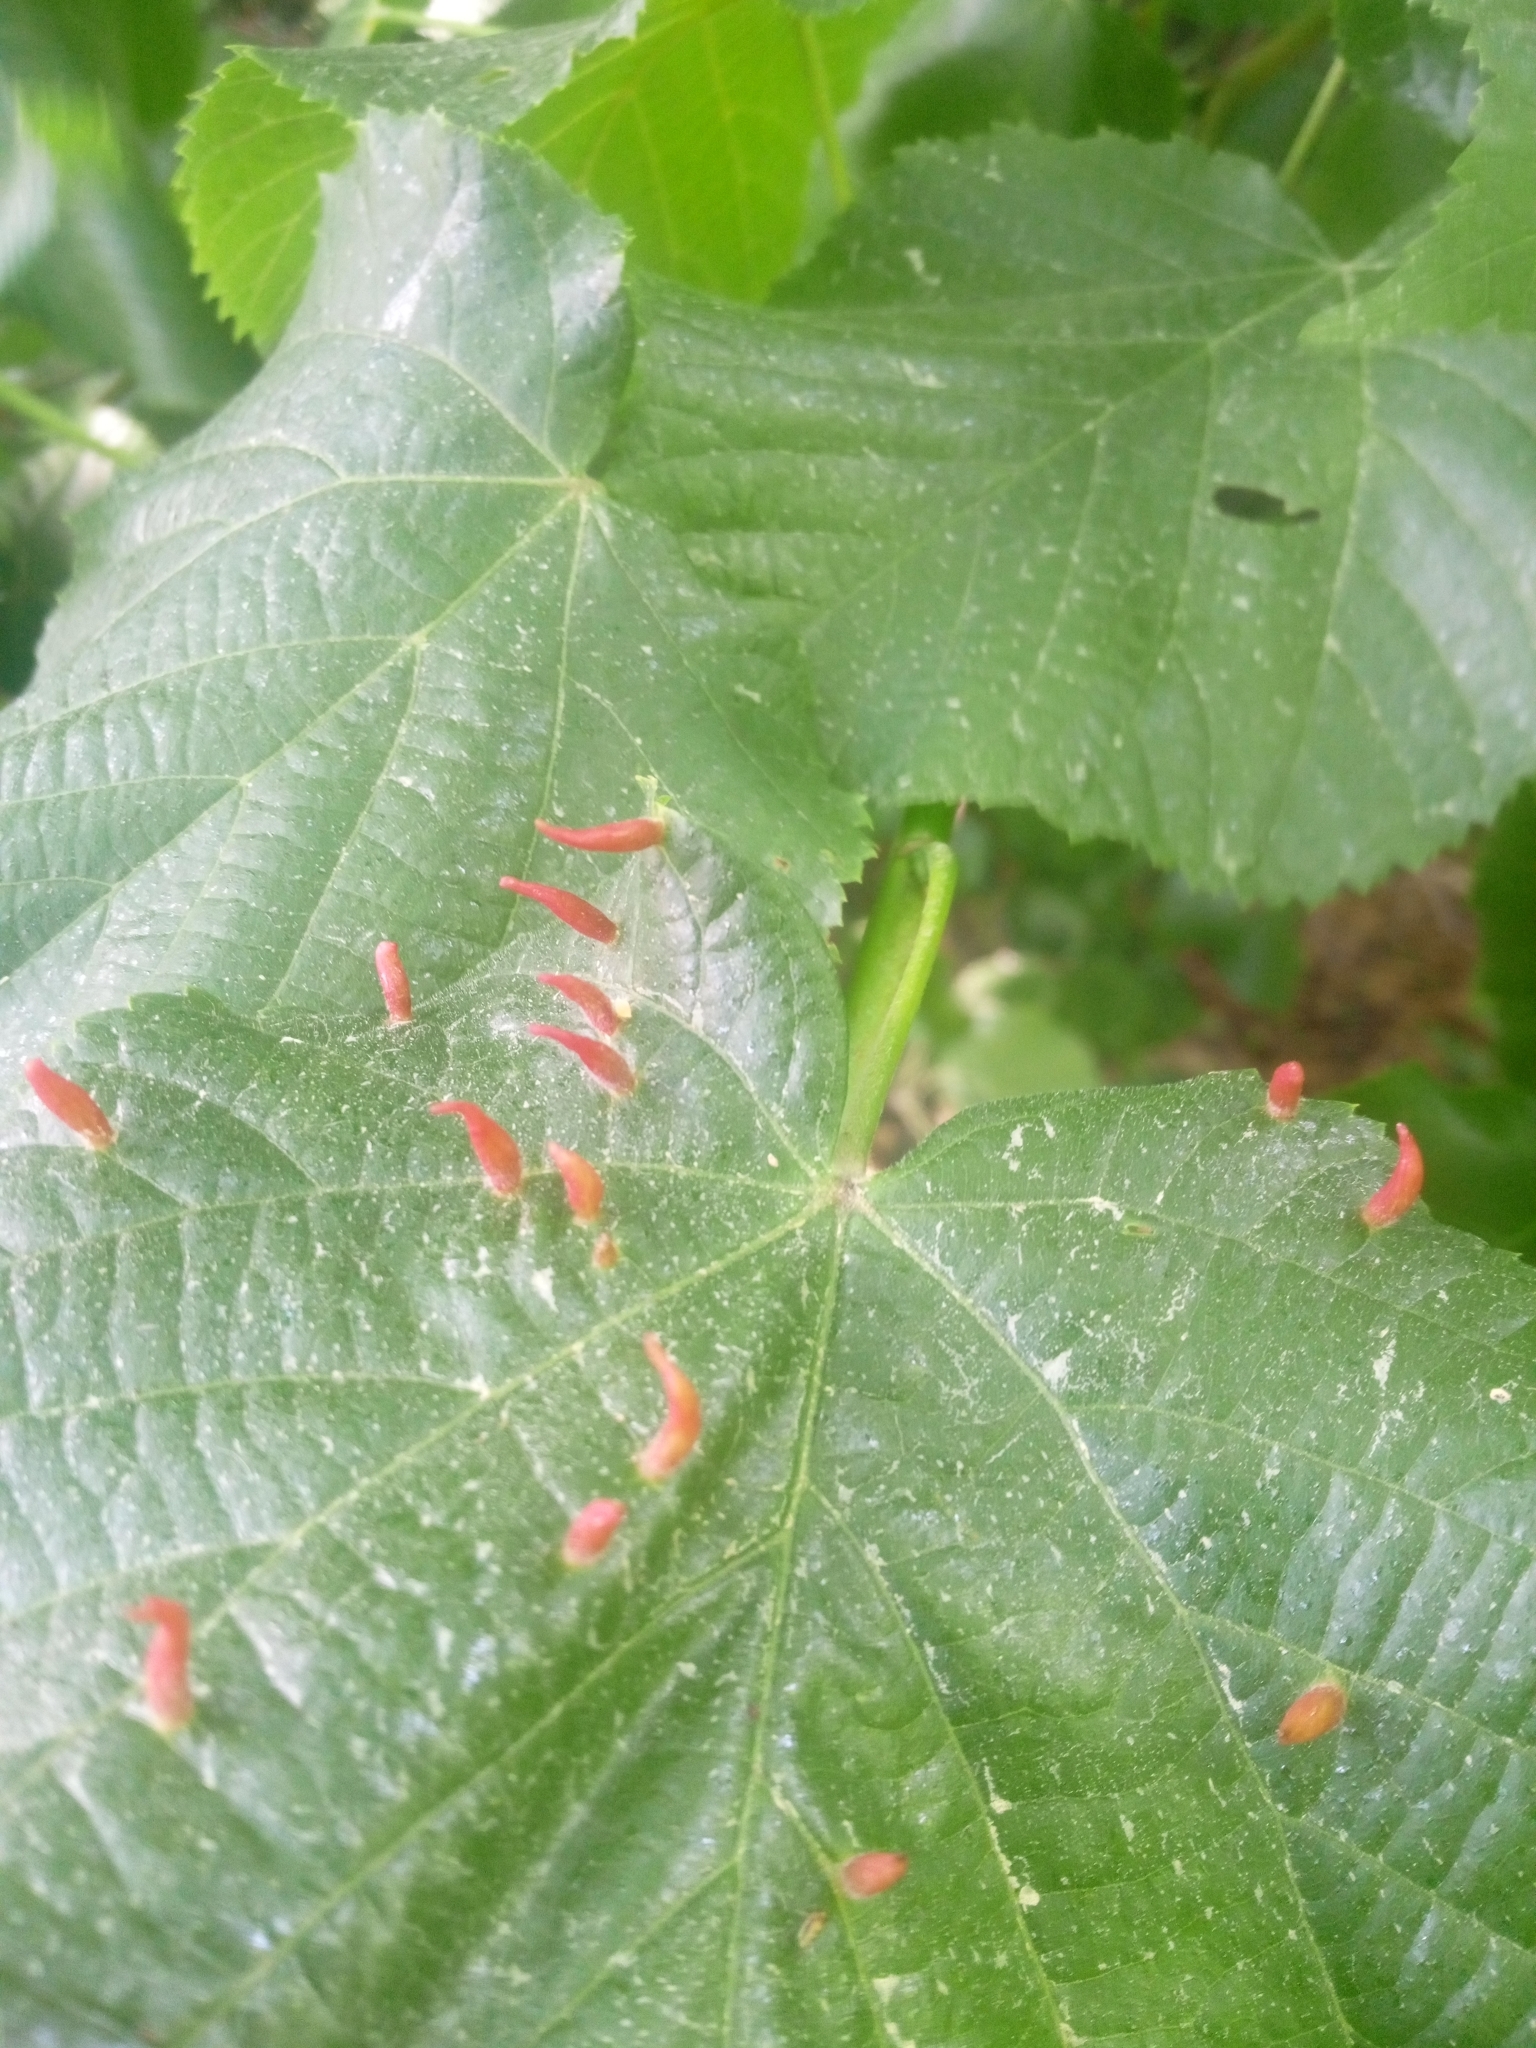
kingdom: Animalia
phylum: Arthropoda
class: Arachnida
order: Trombidiformes
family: Eriophyidae
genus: Eriophyes
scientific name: Eriophyes tiliae
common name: Red nail gall mite
